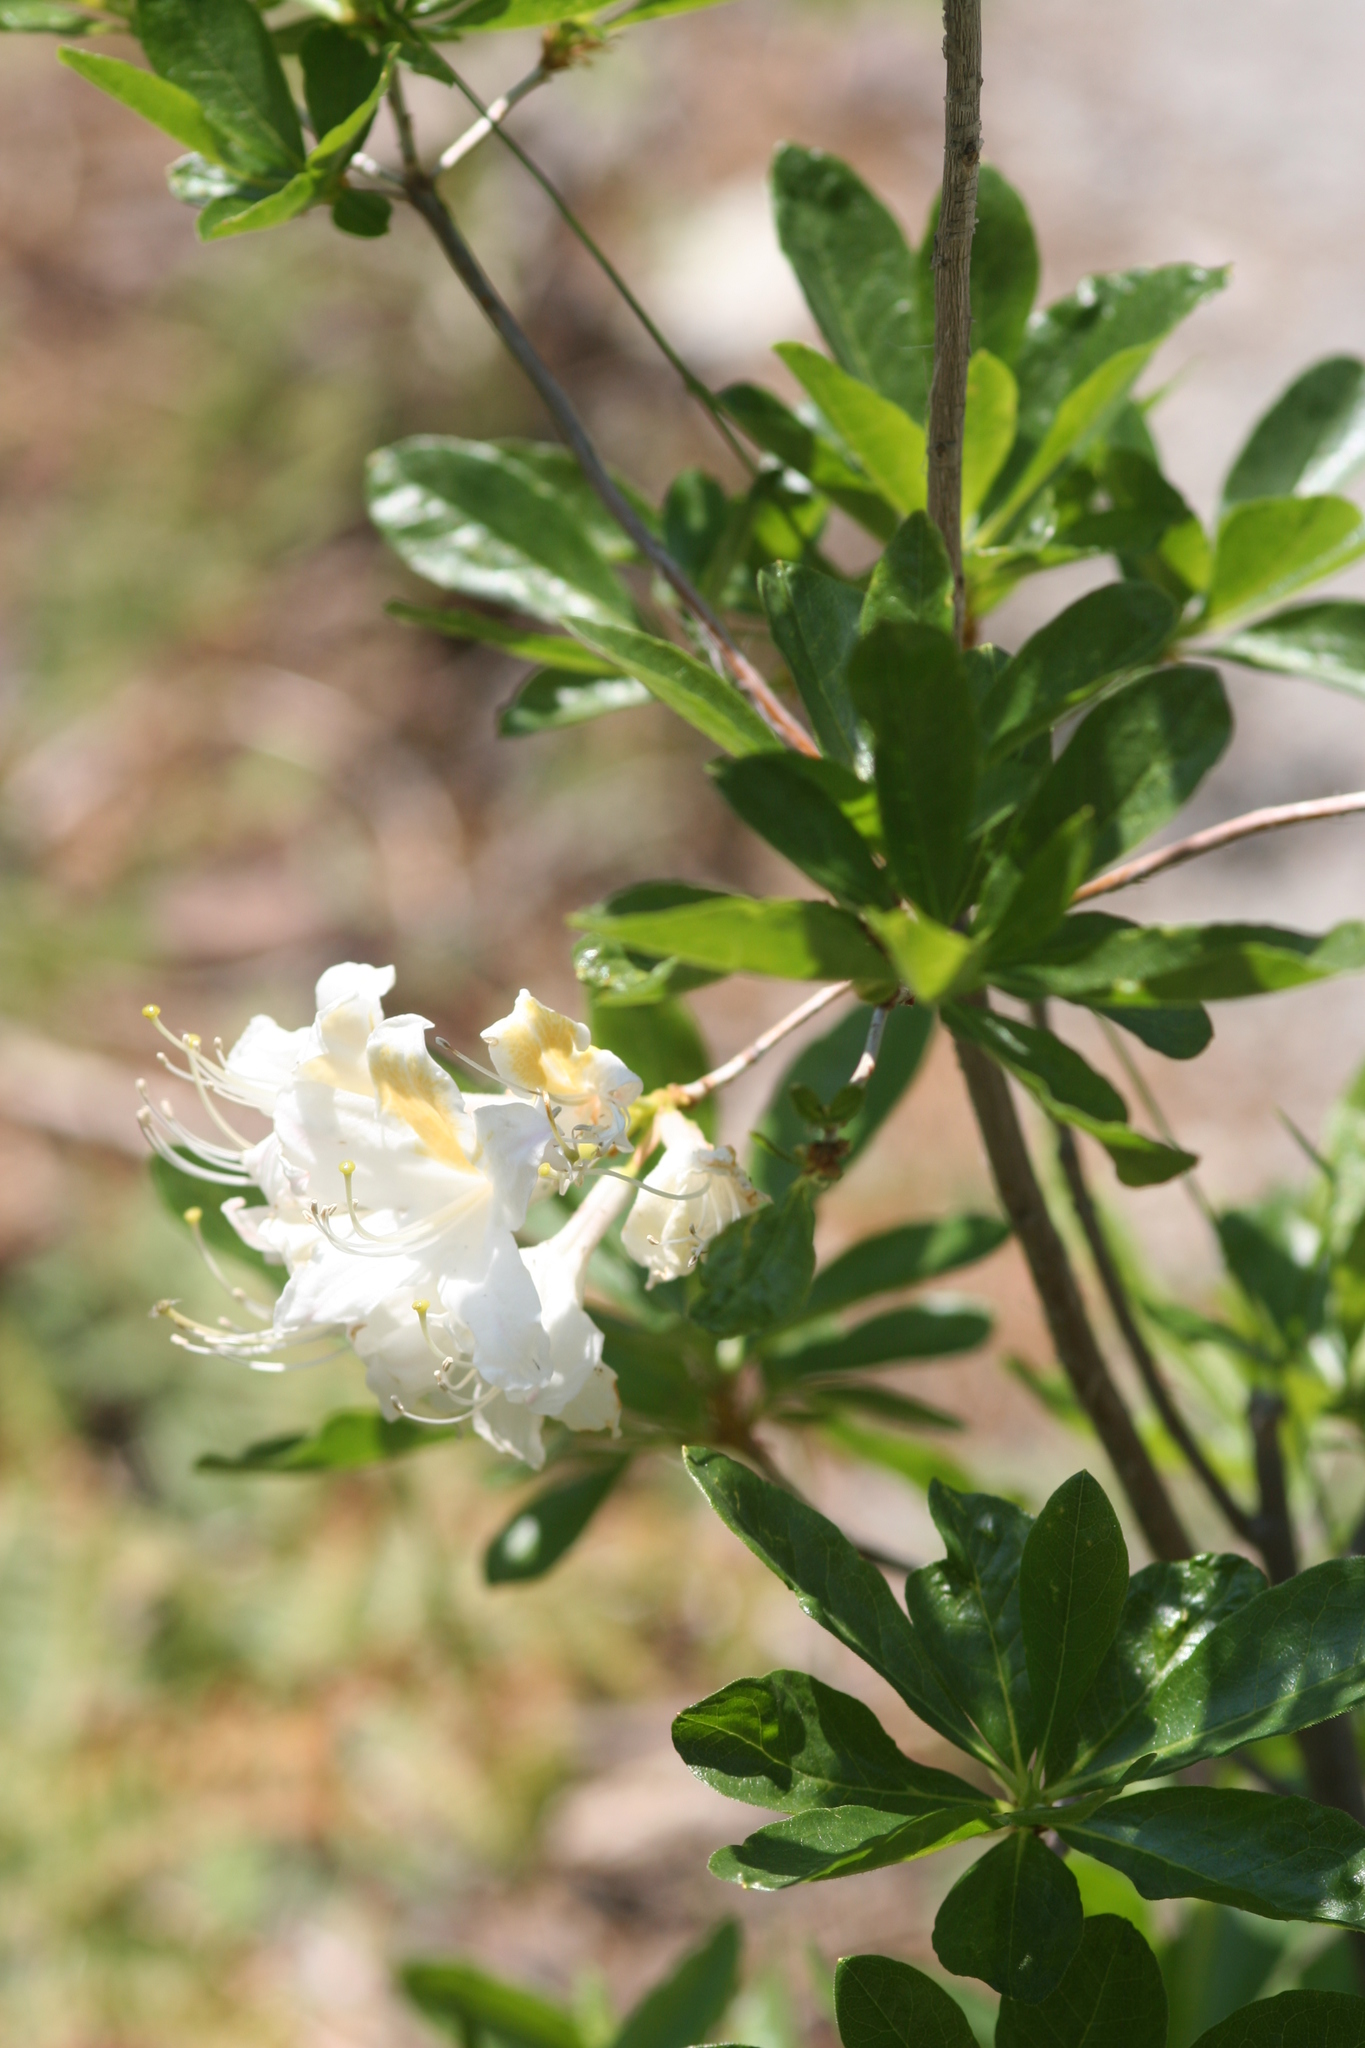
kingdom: Plantae
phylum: Tracheophyta
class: Magnoliopsida
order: Ericales
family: Ericaceae
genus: Rhododendron
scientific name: Rhododendron occidentale
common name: Western azalea
